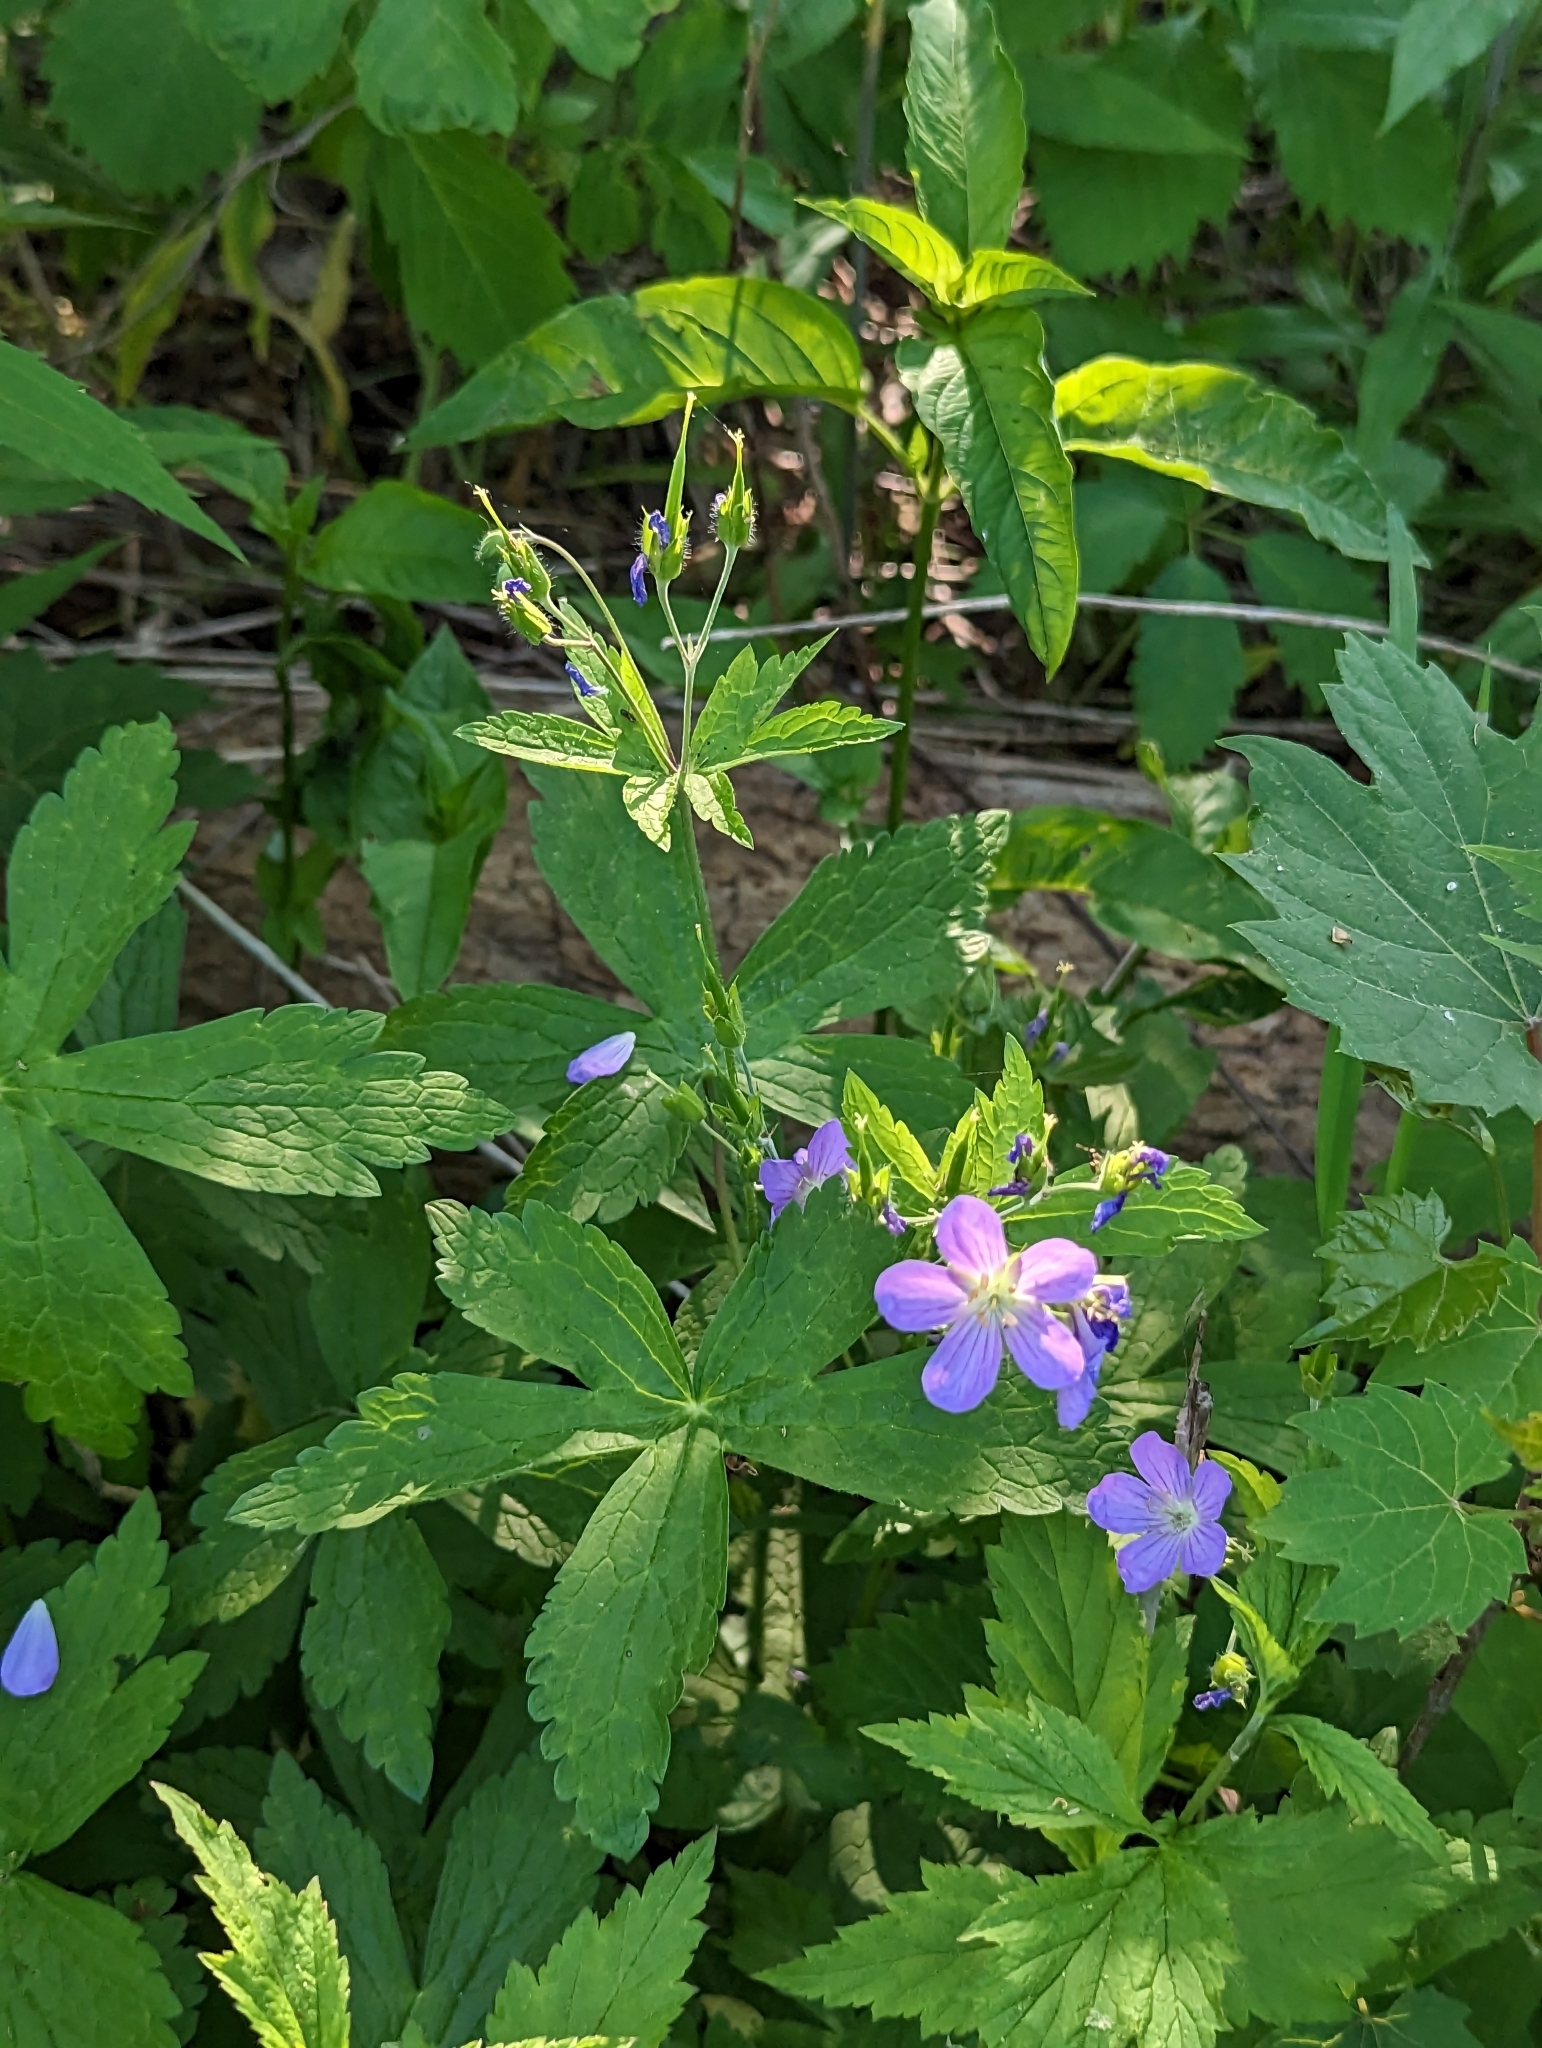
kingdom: Plantae
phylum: Tracheophyta
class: Magnoliopsida
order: Geraniales
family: Geraniaceae
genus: Geranium
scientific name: Geranium maculatum
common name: Spotted geranium
